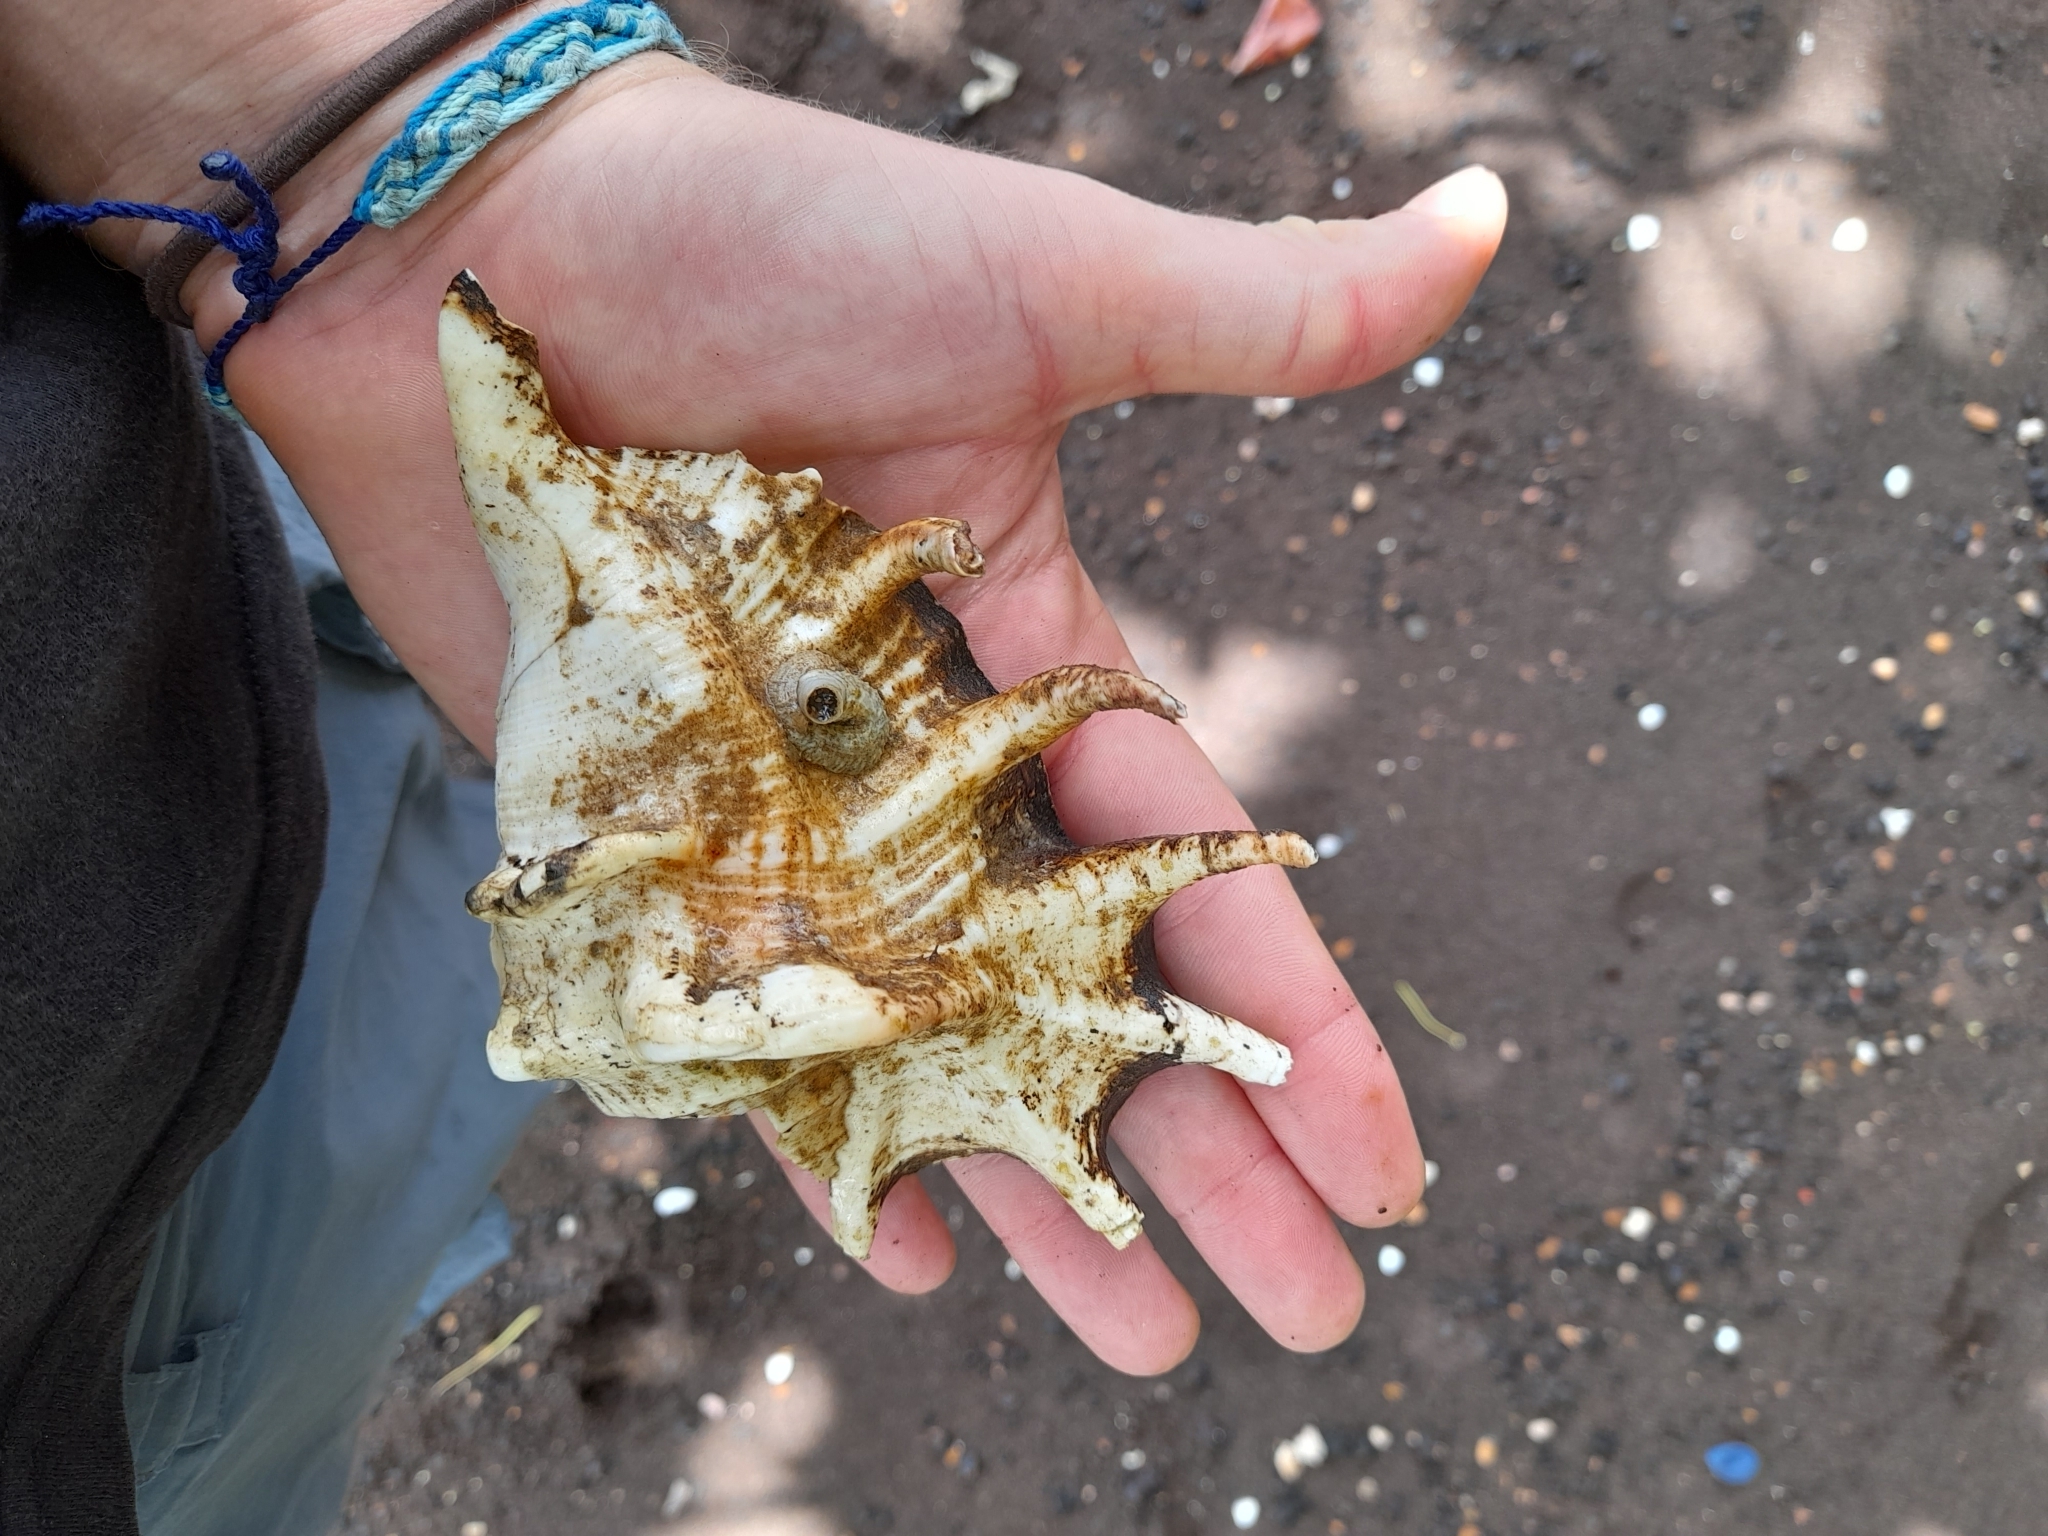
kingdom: Animalia
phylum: Mollusca
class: Gastropoda
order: Littorinimorpha
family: Strombidae
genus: Lambis
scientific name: Lambis lambis
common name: Common spider conch
